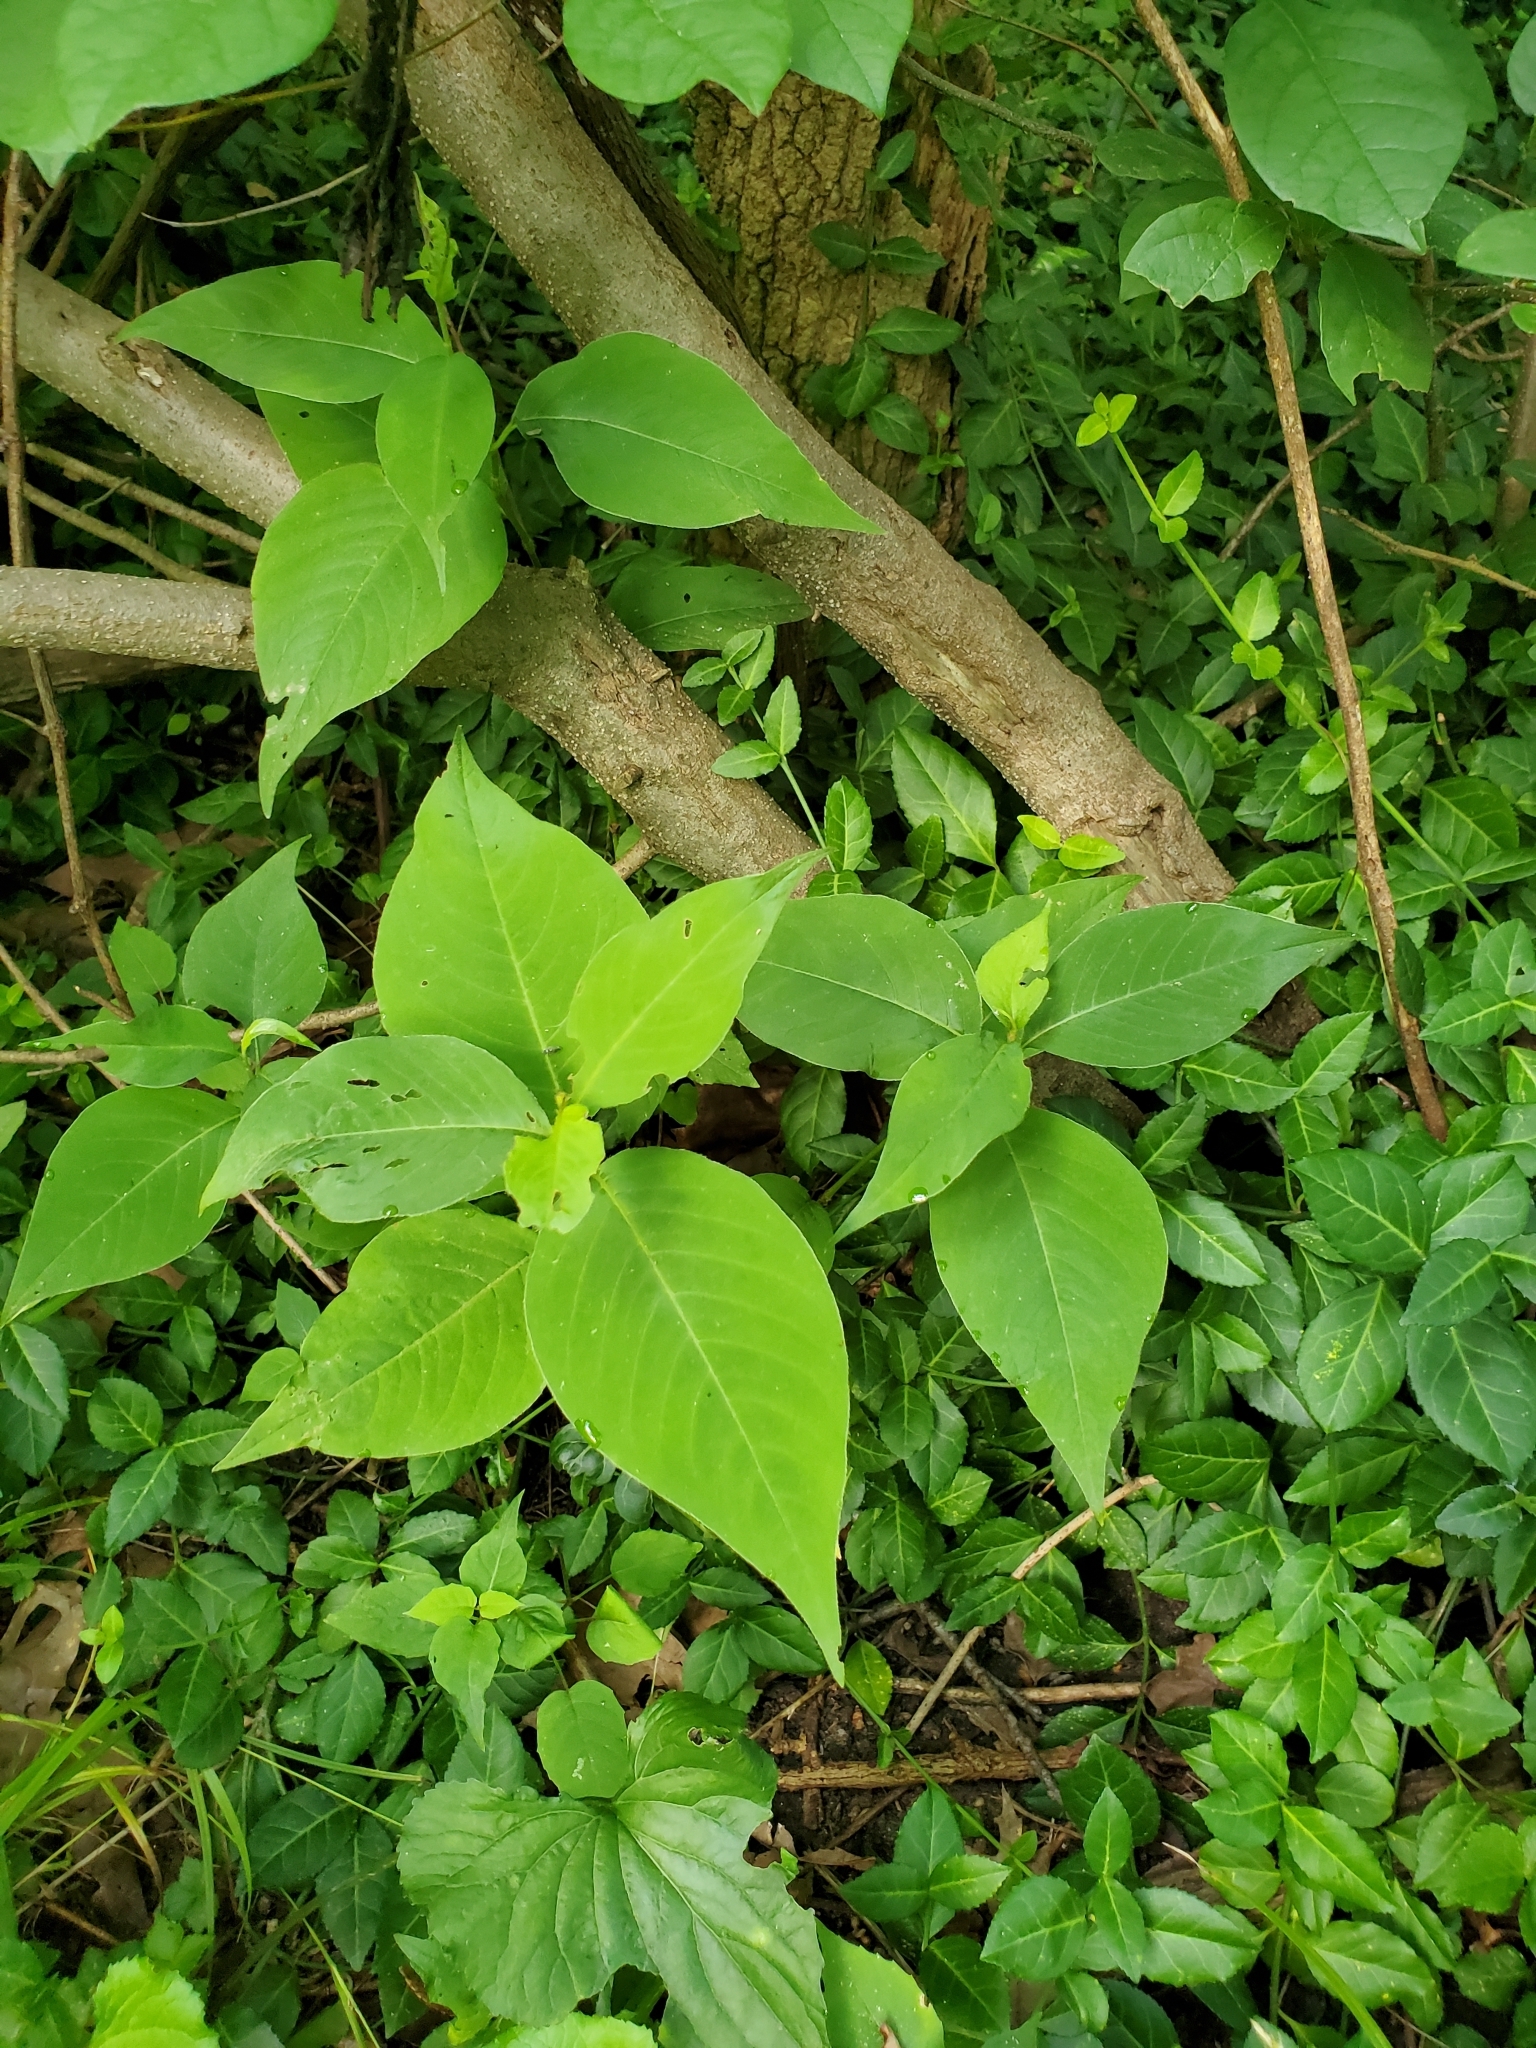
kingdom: Plantae
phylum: Tracheophyta
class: Magnoliopsida
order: Caryophyllales
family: Polygonaceae
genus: Persicaria
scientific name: Persicaria virginiana
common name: Jumpseed
